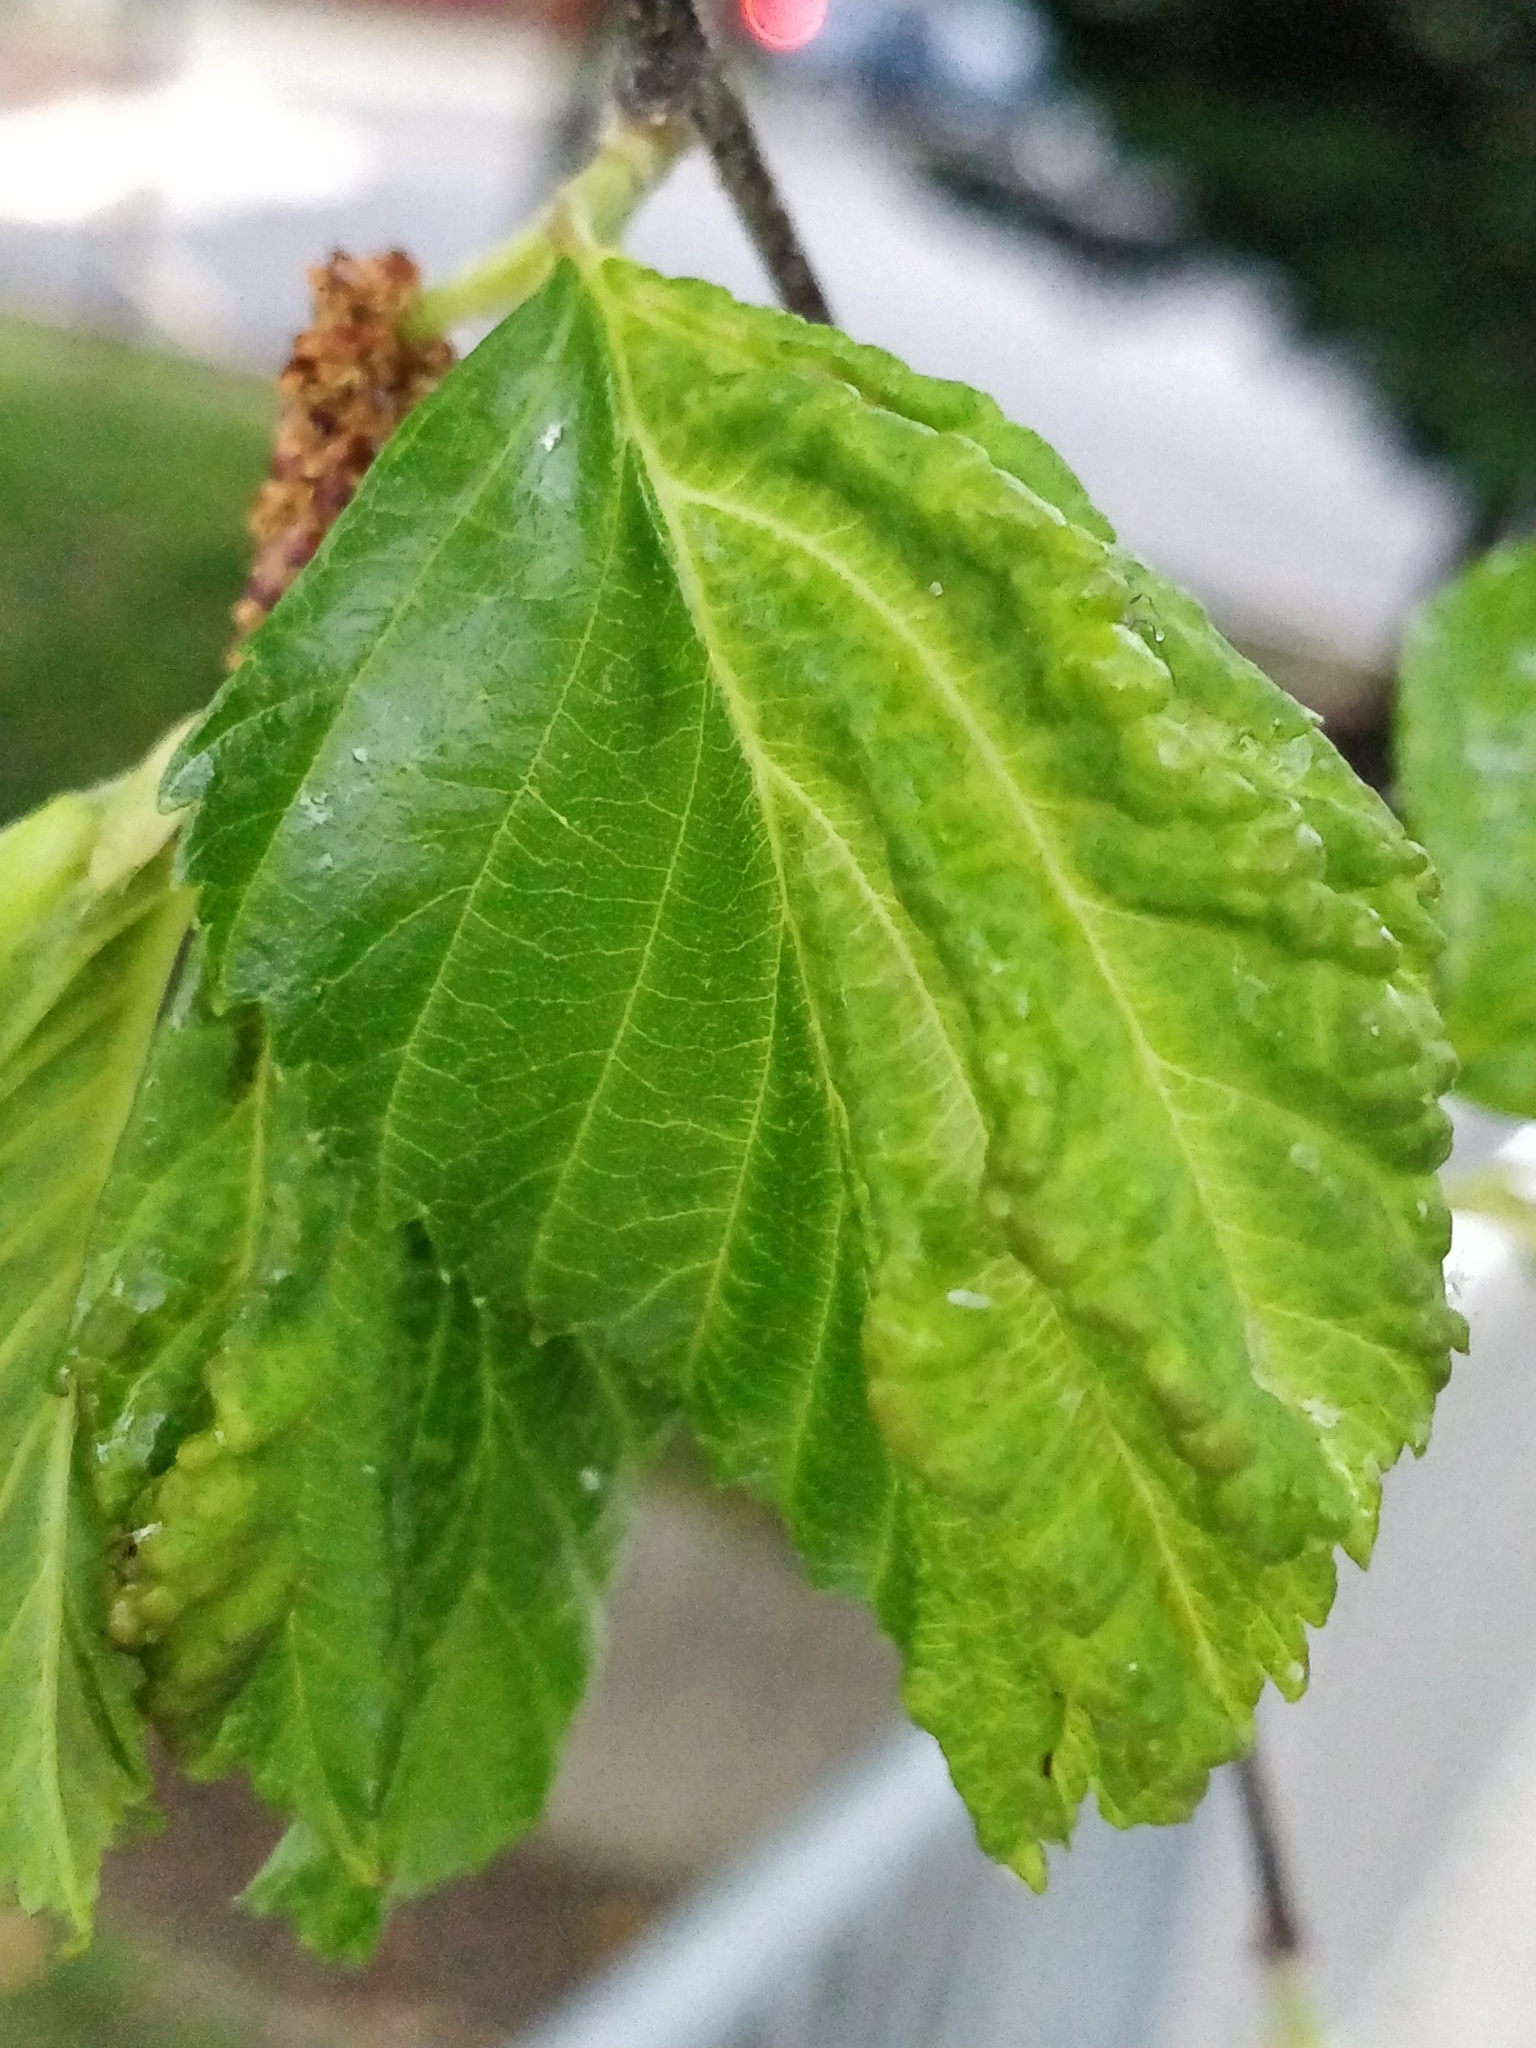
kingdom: Animalia
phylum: Arthropoda
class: Insecta
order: Hemiptera
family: Aphididae
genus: Hamamelistes
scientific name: Hamamelistes spinosus
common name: Witch hazel gall aphid
